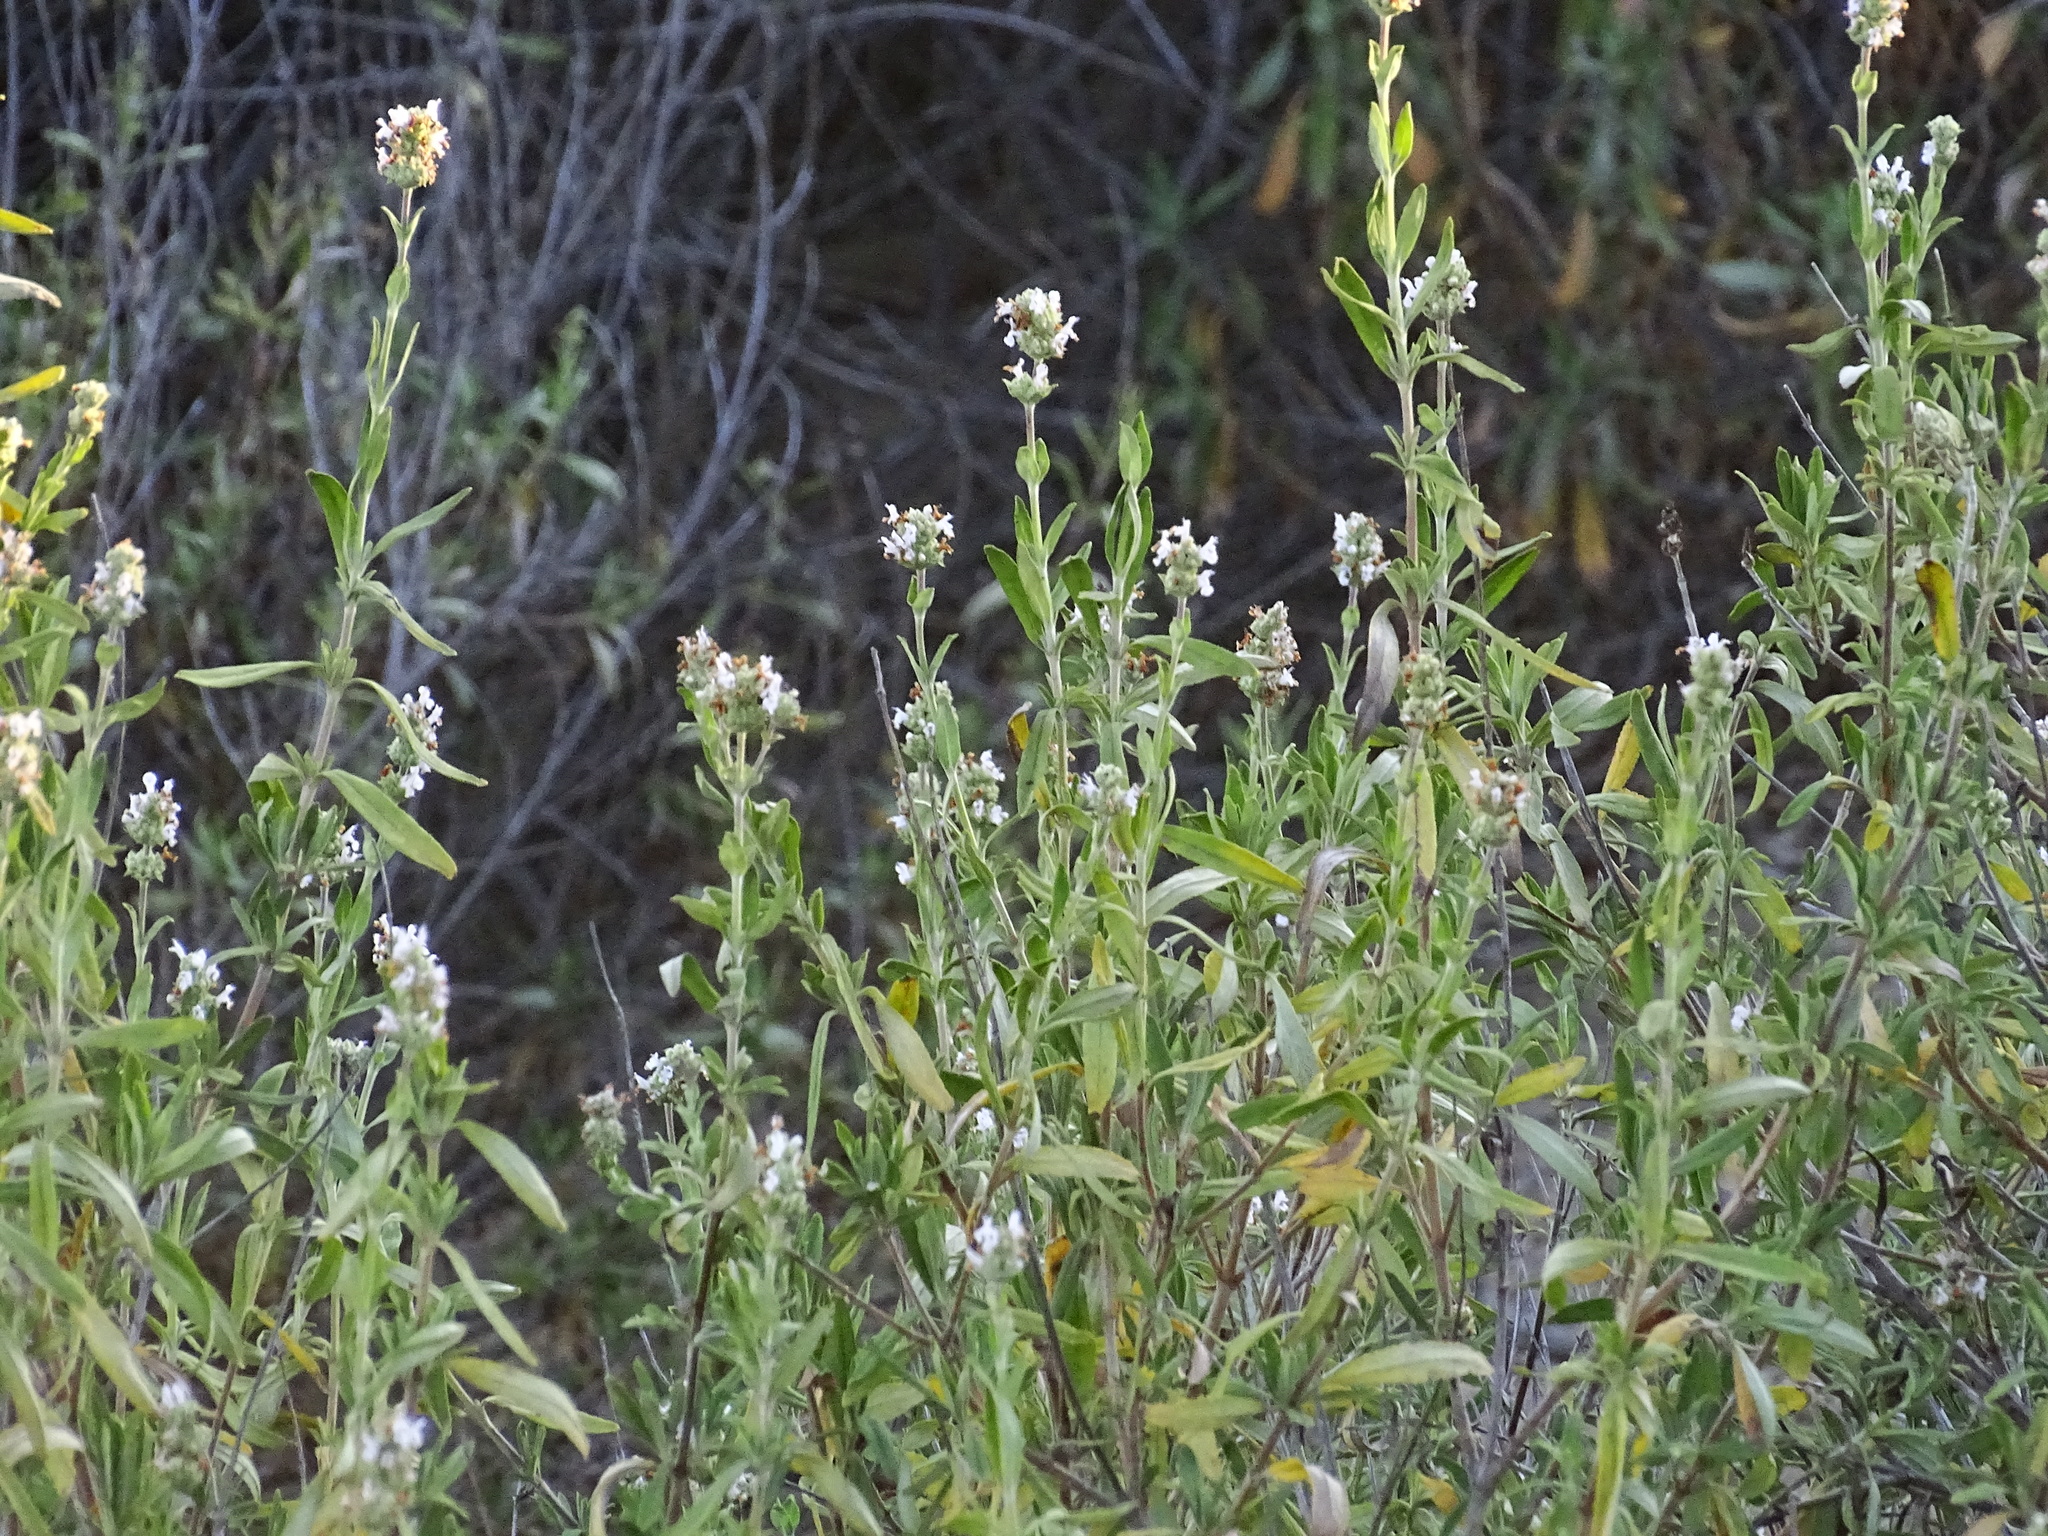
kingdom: Plantae
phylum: Tracheophyta
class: Magnoliopsida
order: Lamiales
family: Lamiaceae
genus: Salvia
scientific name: Salvia mellifera
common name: Black sage
